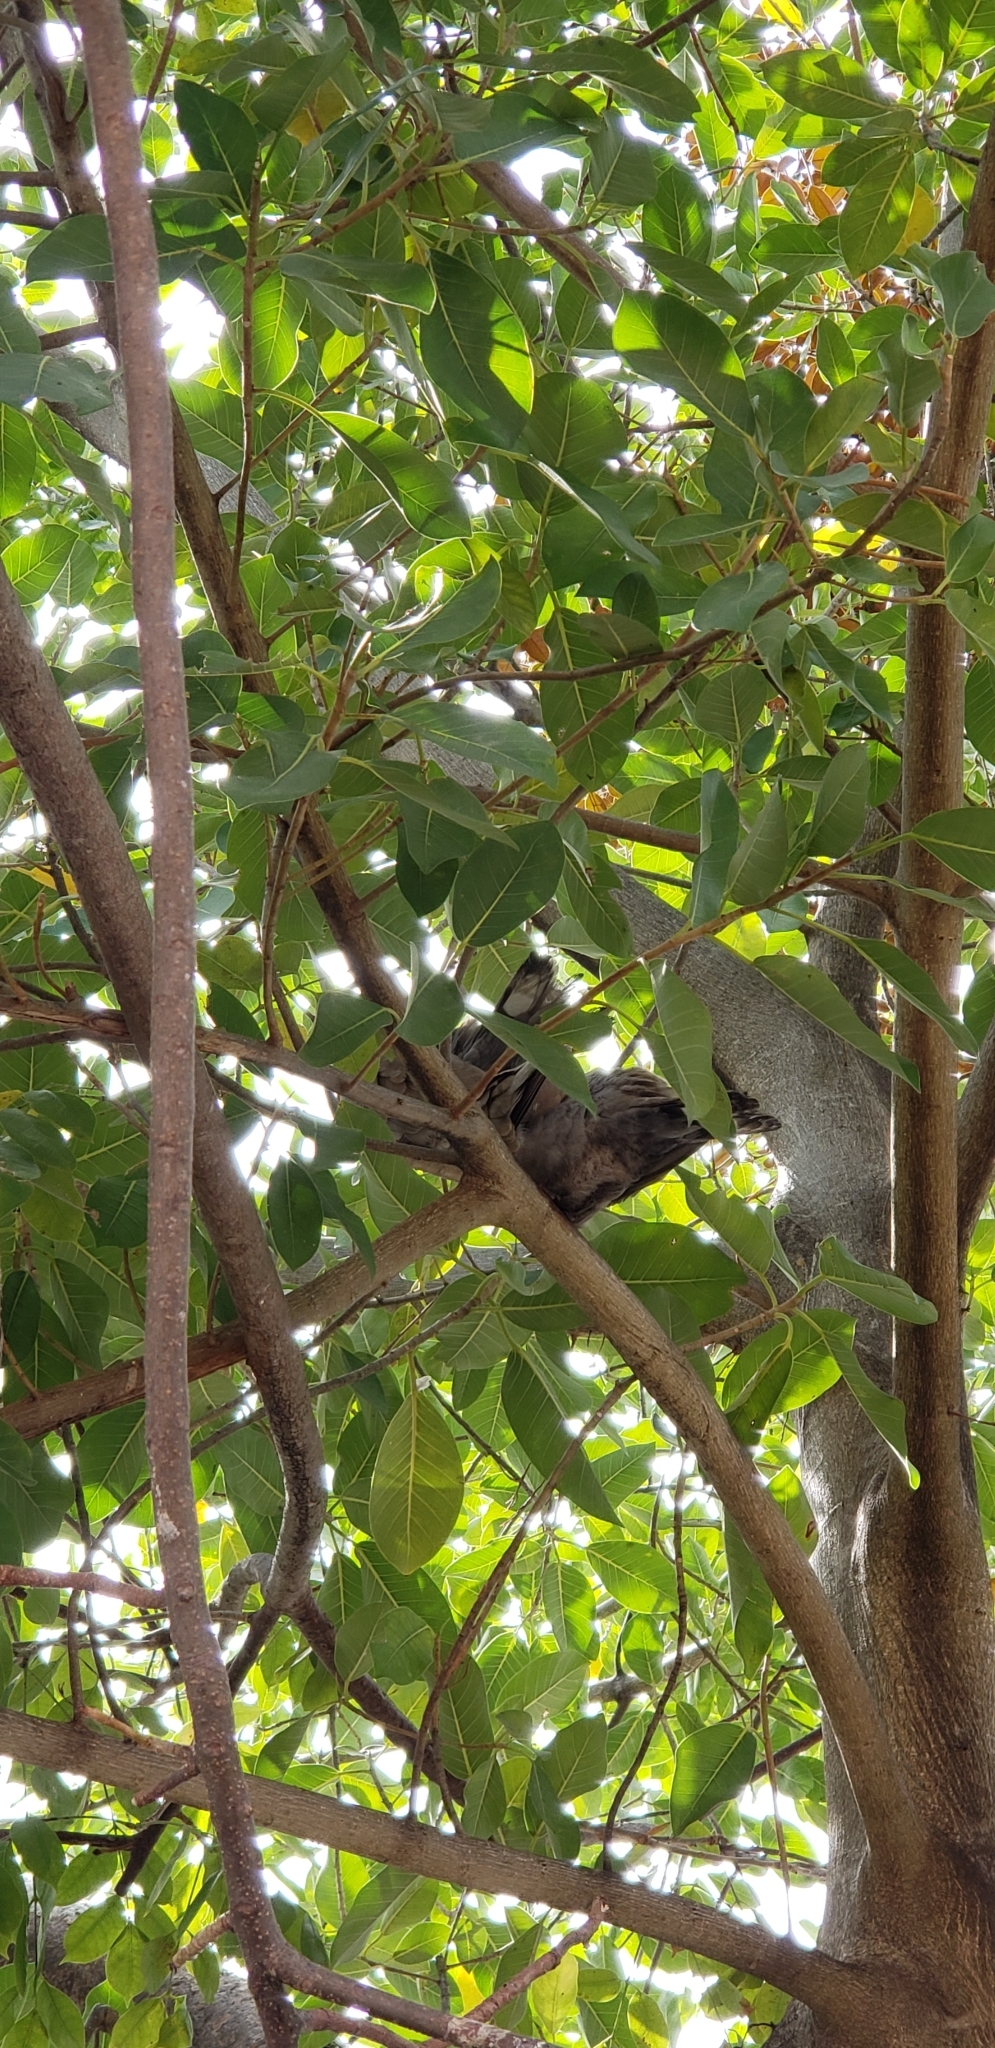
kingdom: Animalia
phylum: Chordata
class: Aves
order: Columbiformes
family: Columbidae
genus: Streptopelia
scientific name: Streptopelia decaocto
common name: Eurasian collared dove
